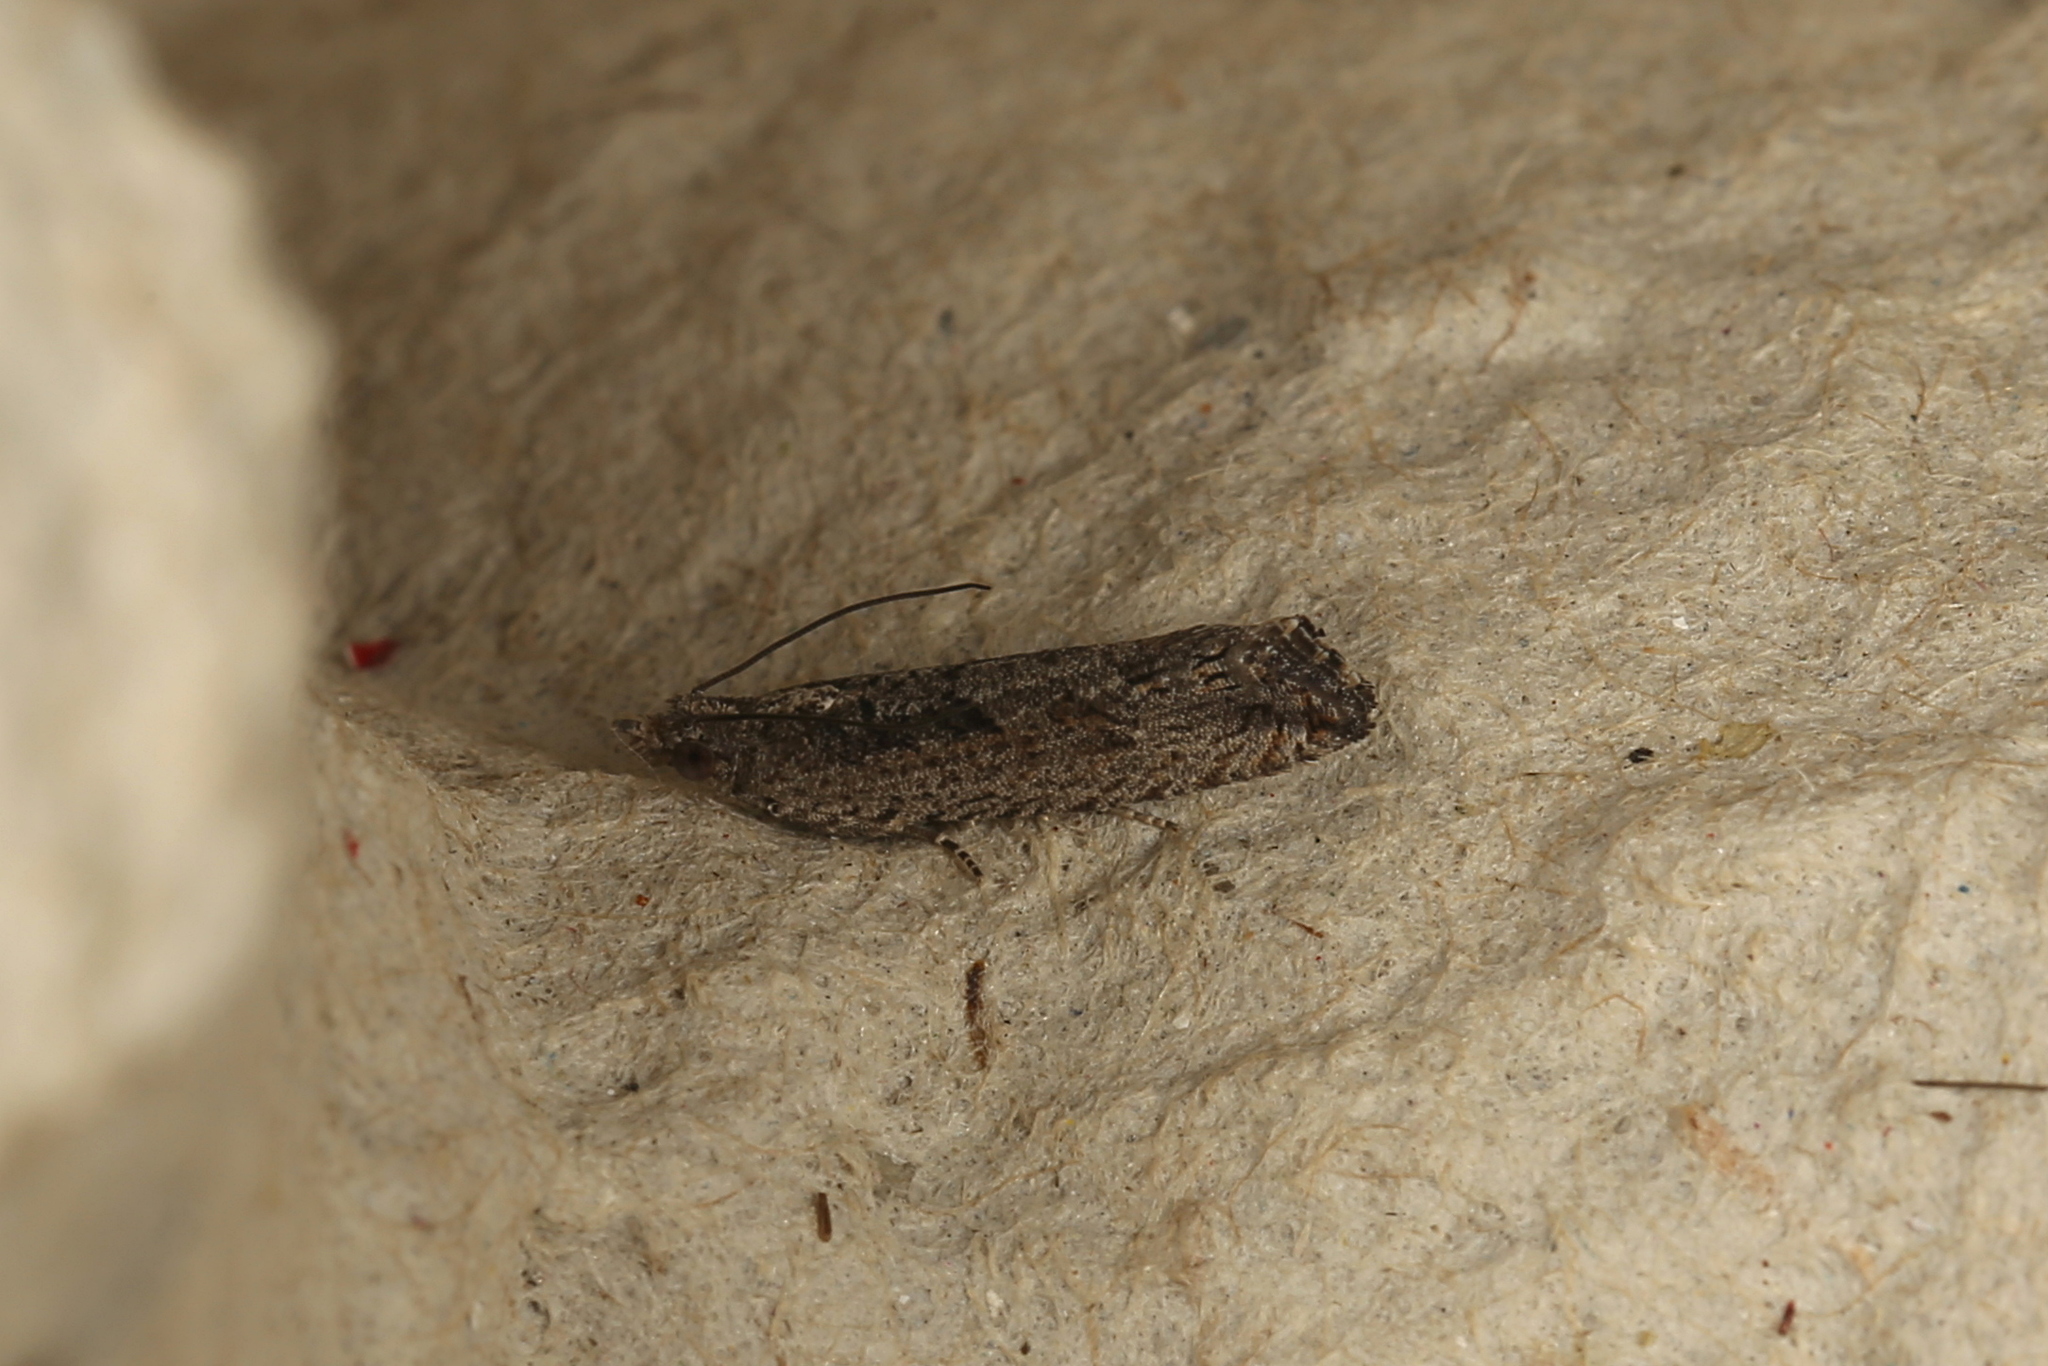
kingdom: Animalia
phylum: Arthropoda
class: Insecta
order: Lepidoptera
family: Tortricidae
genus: Strepsicrates
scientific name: Strepsicrates macropetana
